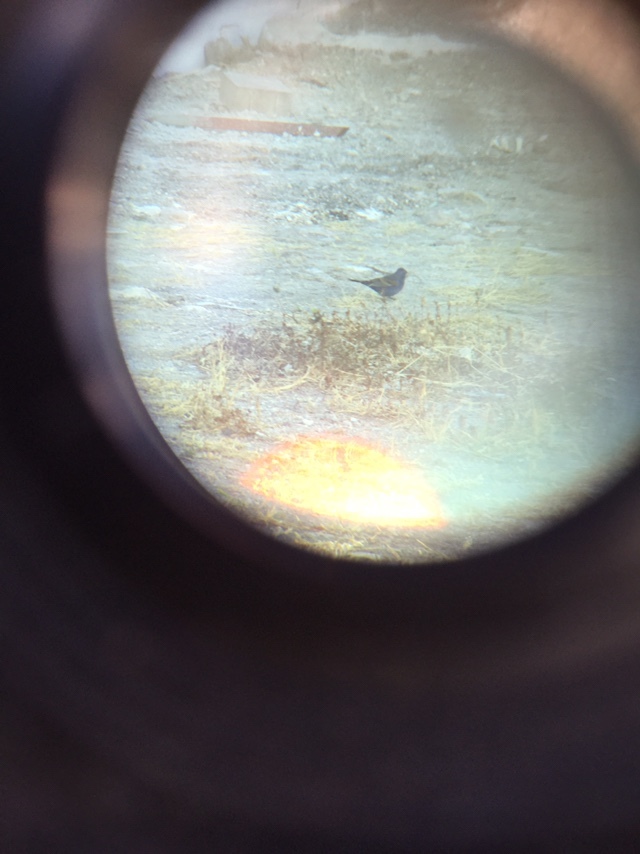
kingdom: Animalia
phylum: Chordata
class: Aves
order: Passeriformes
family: Cardinalidae
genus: Passerina
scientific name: Passerina caerulea
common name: Blue grosbeak
